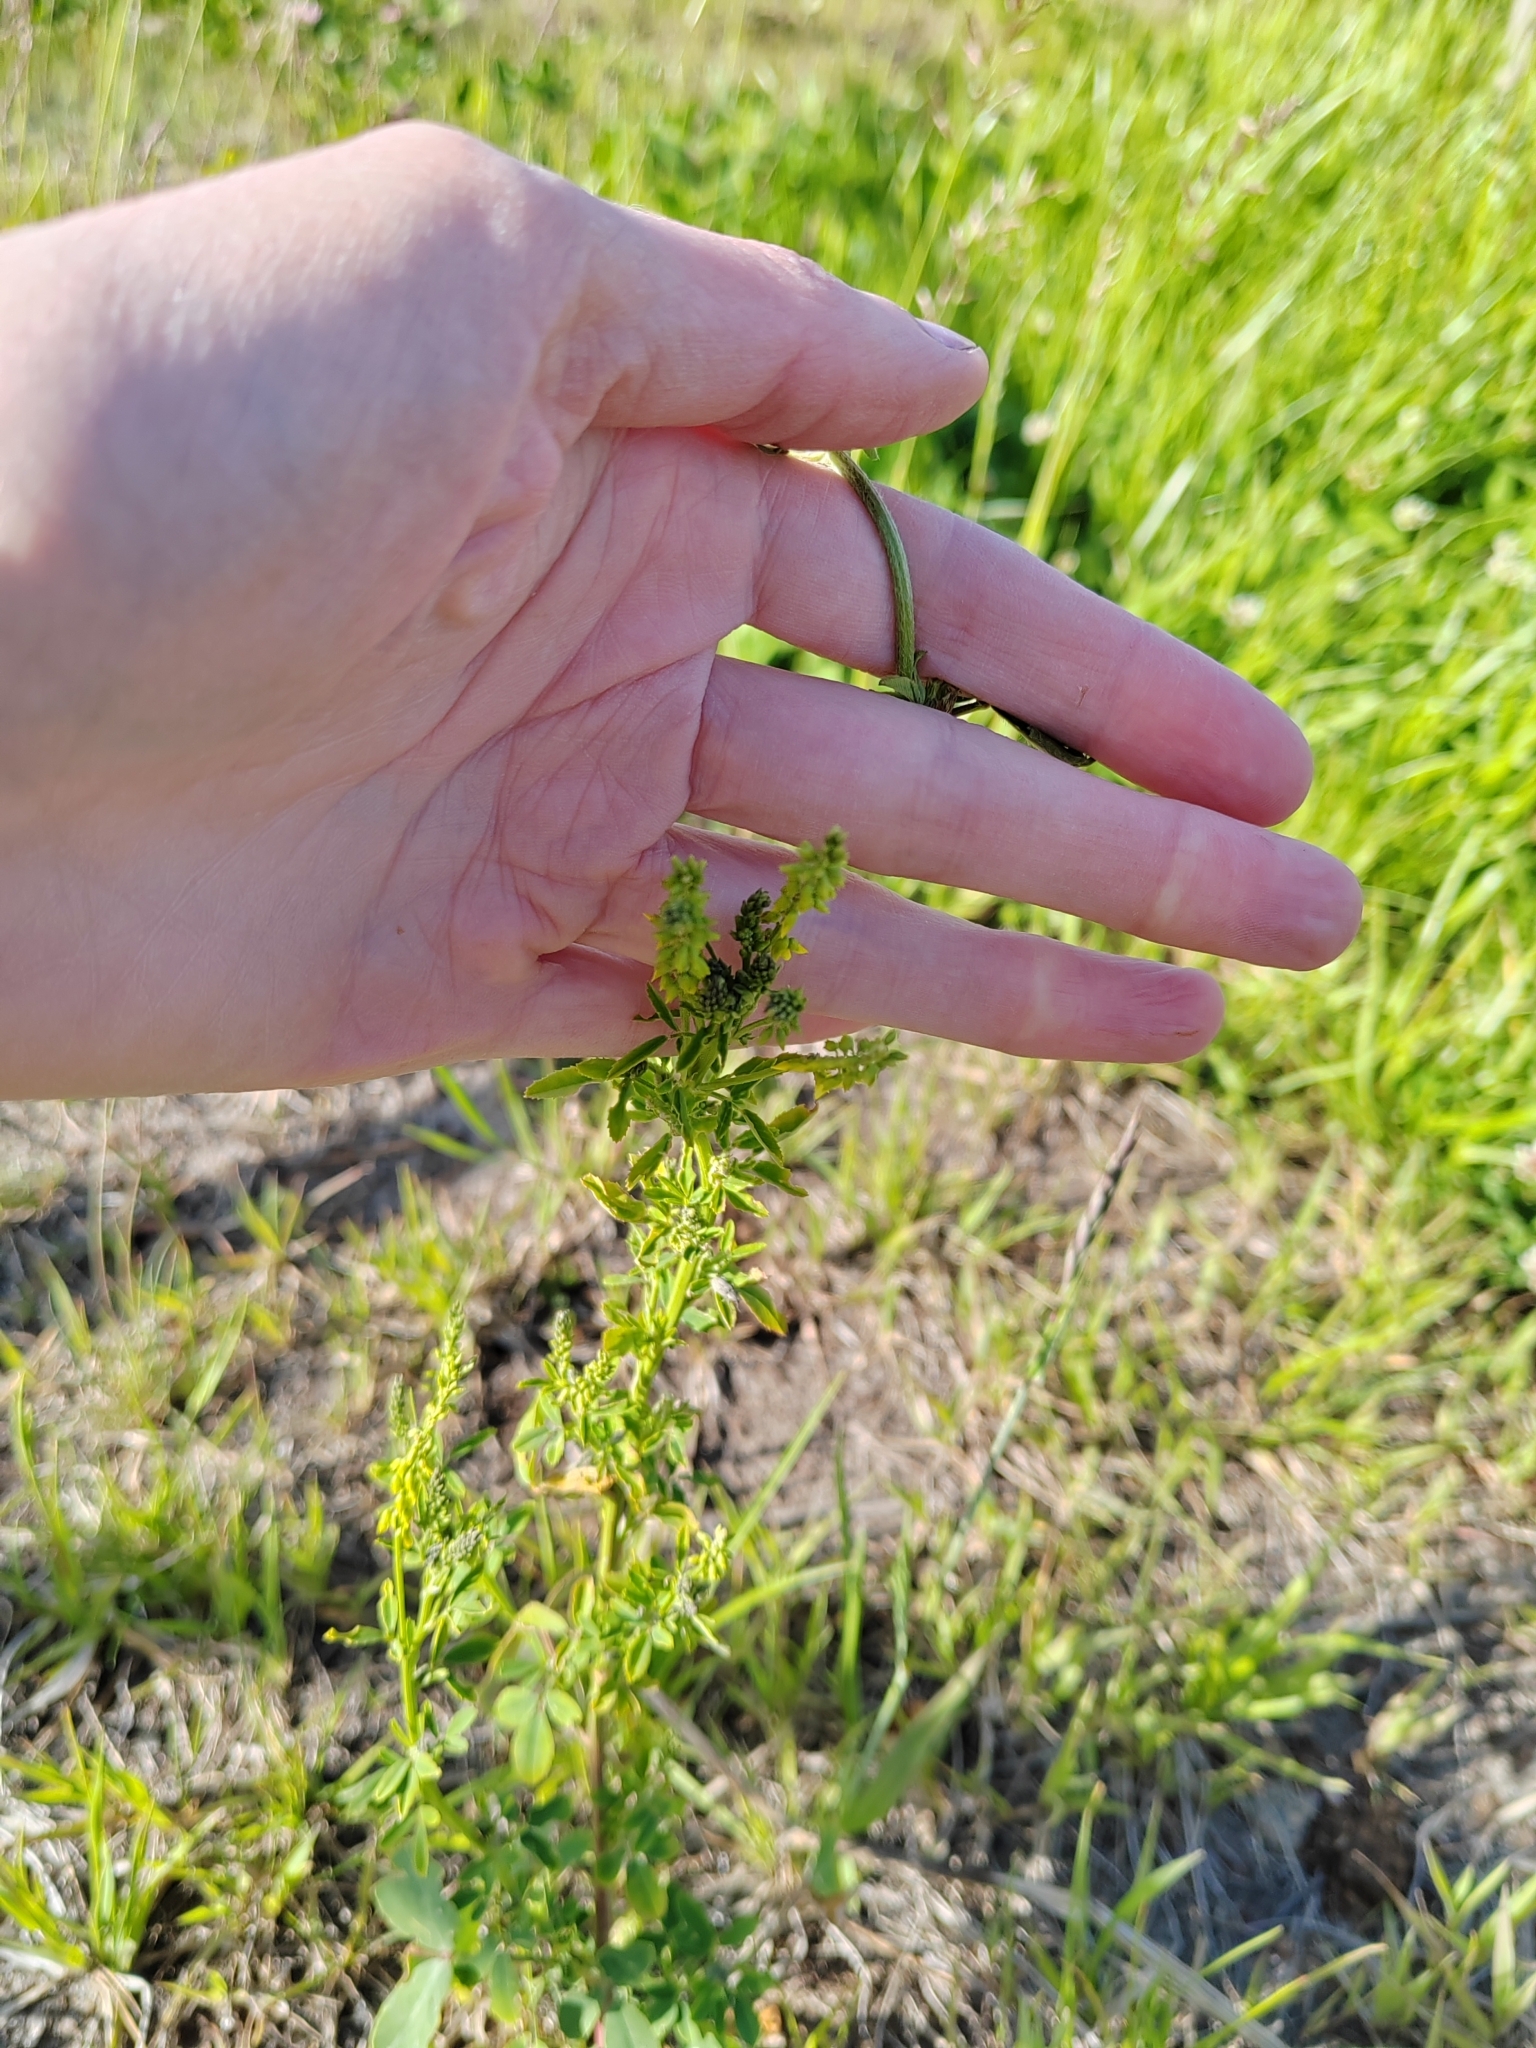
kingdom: Plantae
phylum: Tracheophyta
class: Magnoliopsida
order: Fabales
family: Fabaceae
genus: Melilotus
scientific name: Melilotus officinalis
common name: Sweetclover
